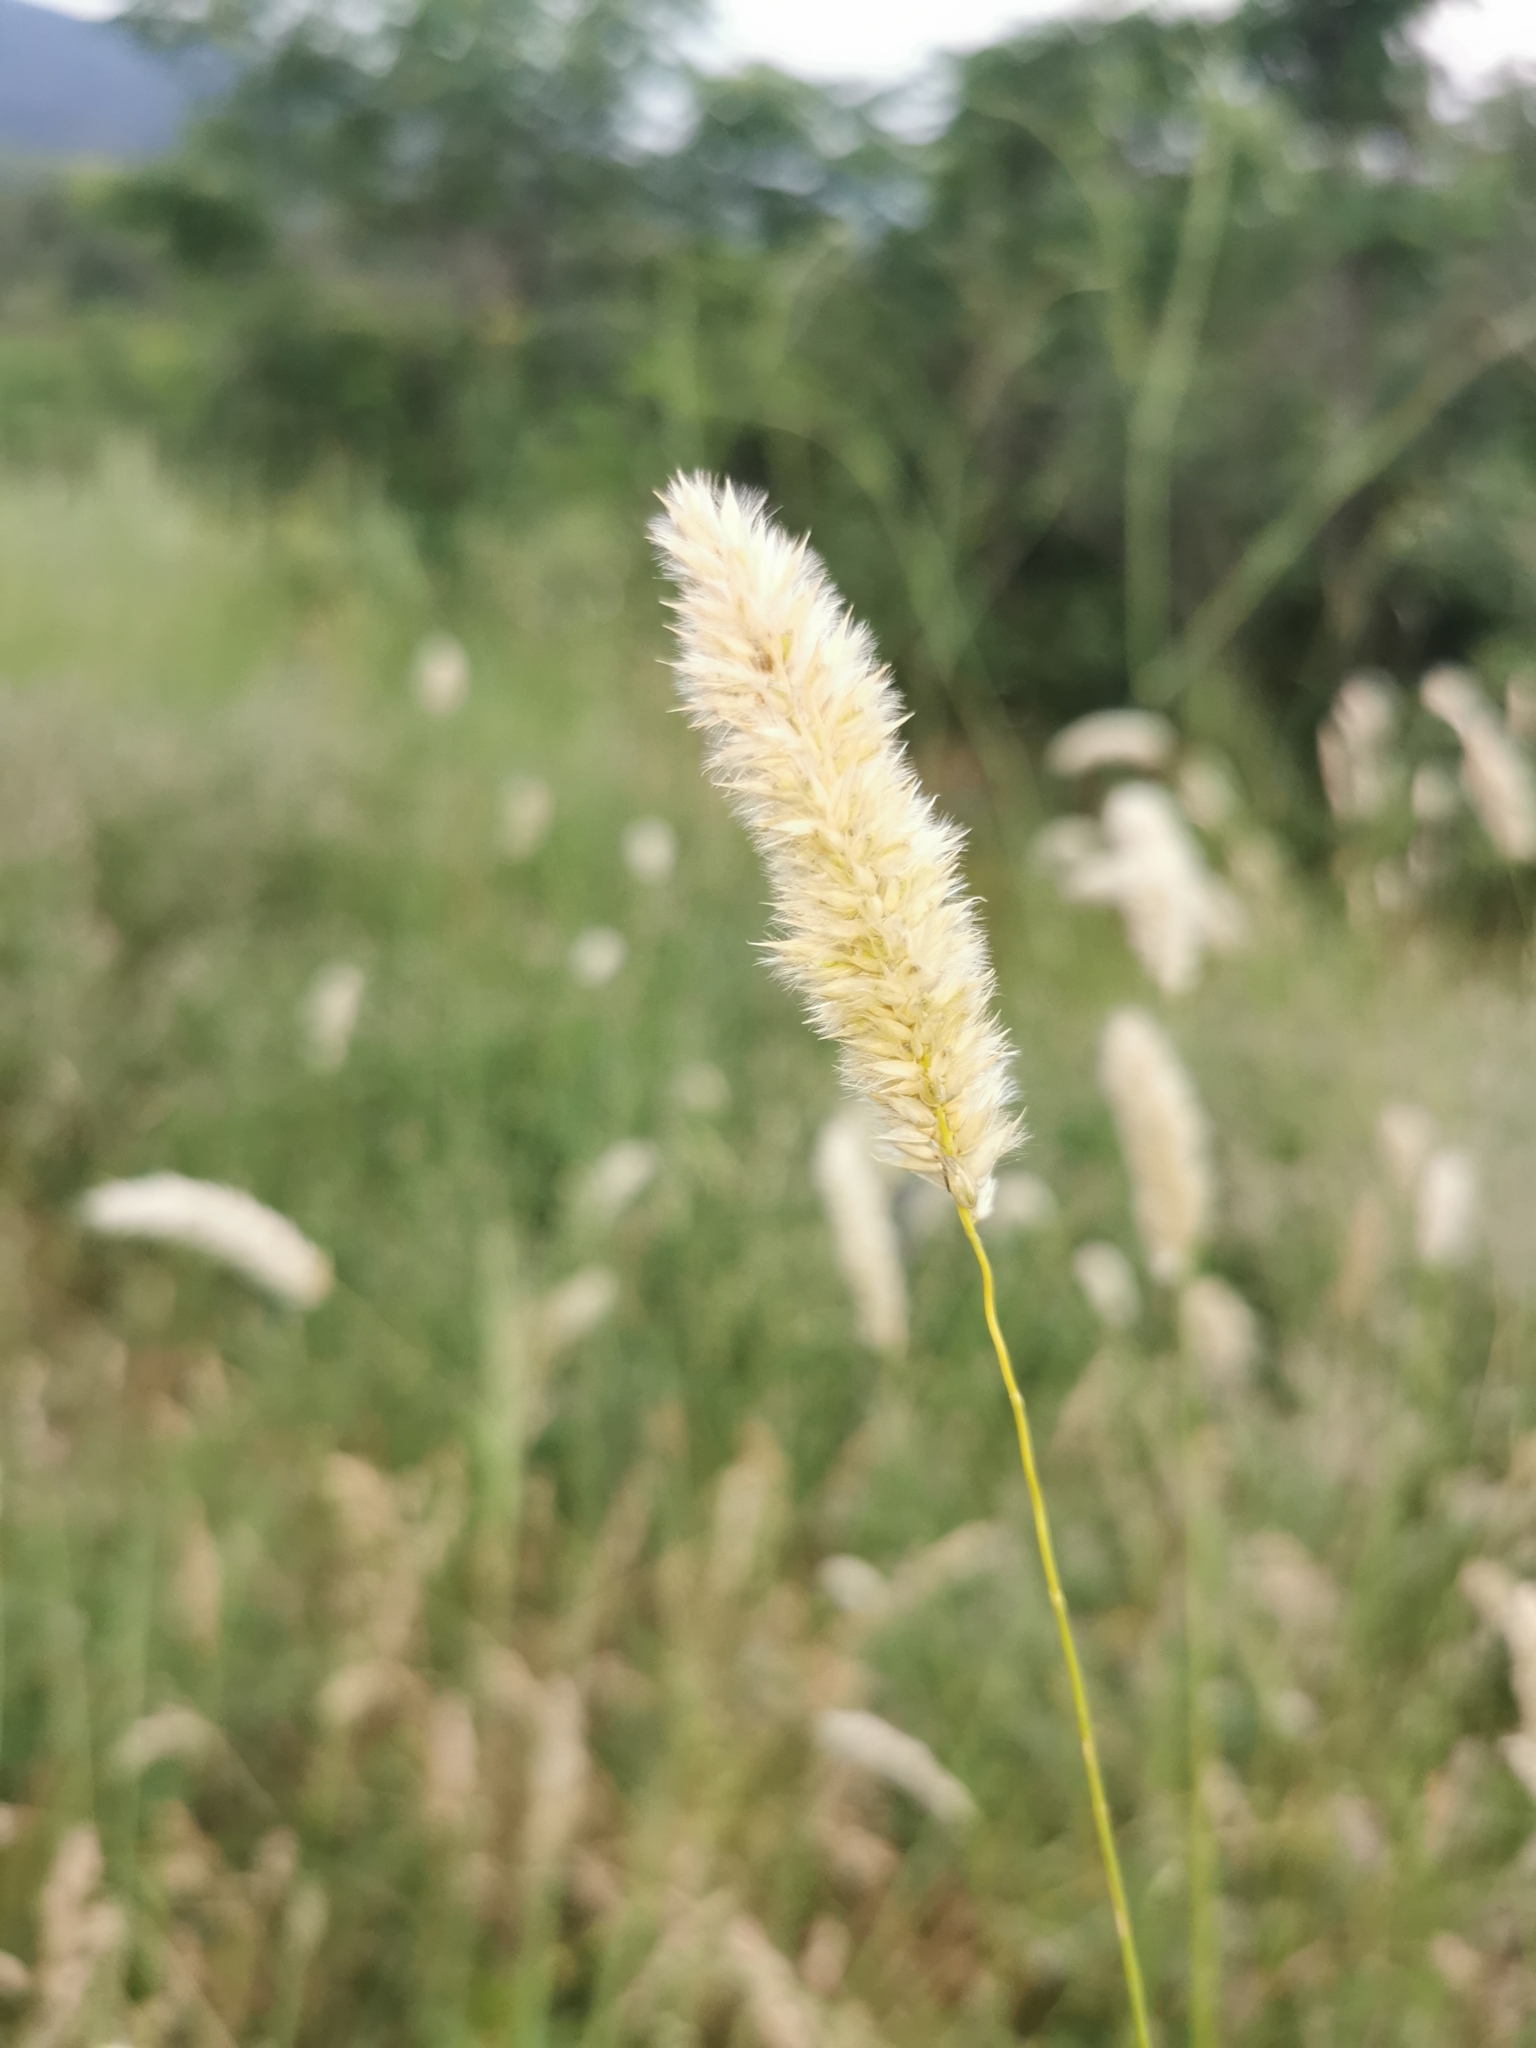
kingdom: Plantae
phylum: Tracheophyta
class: Liliopsida
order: Poales
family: Poaceae
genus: Melica
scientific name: Melica transsilvanica
